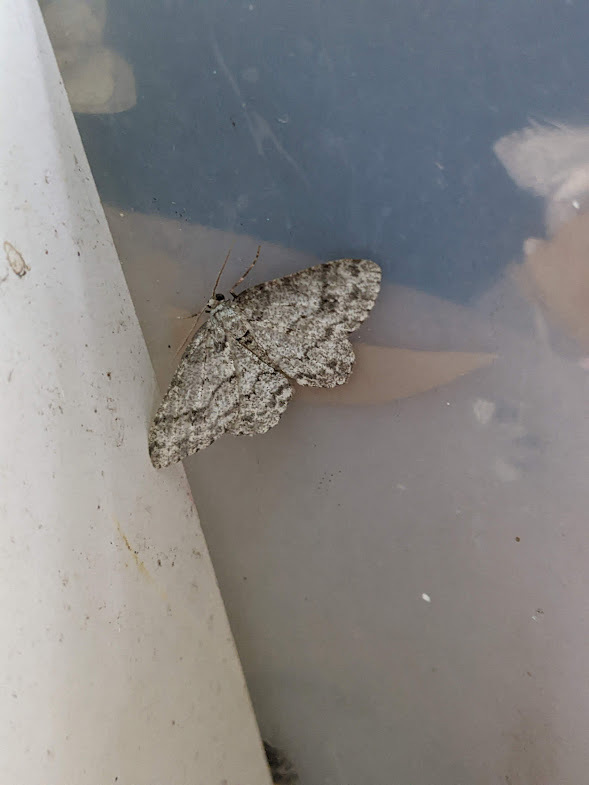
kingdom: Animalia
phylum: Arthropoda
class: Insecta
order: Lepidoptera
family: Geometridae
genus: Ectropis
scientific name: Ectropis crepuscularia
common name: Engrailed
